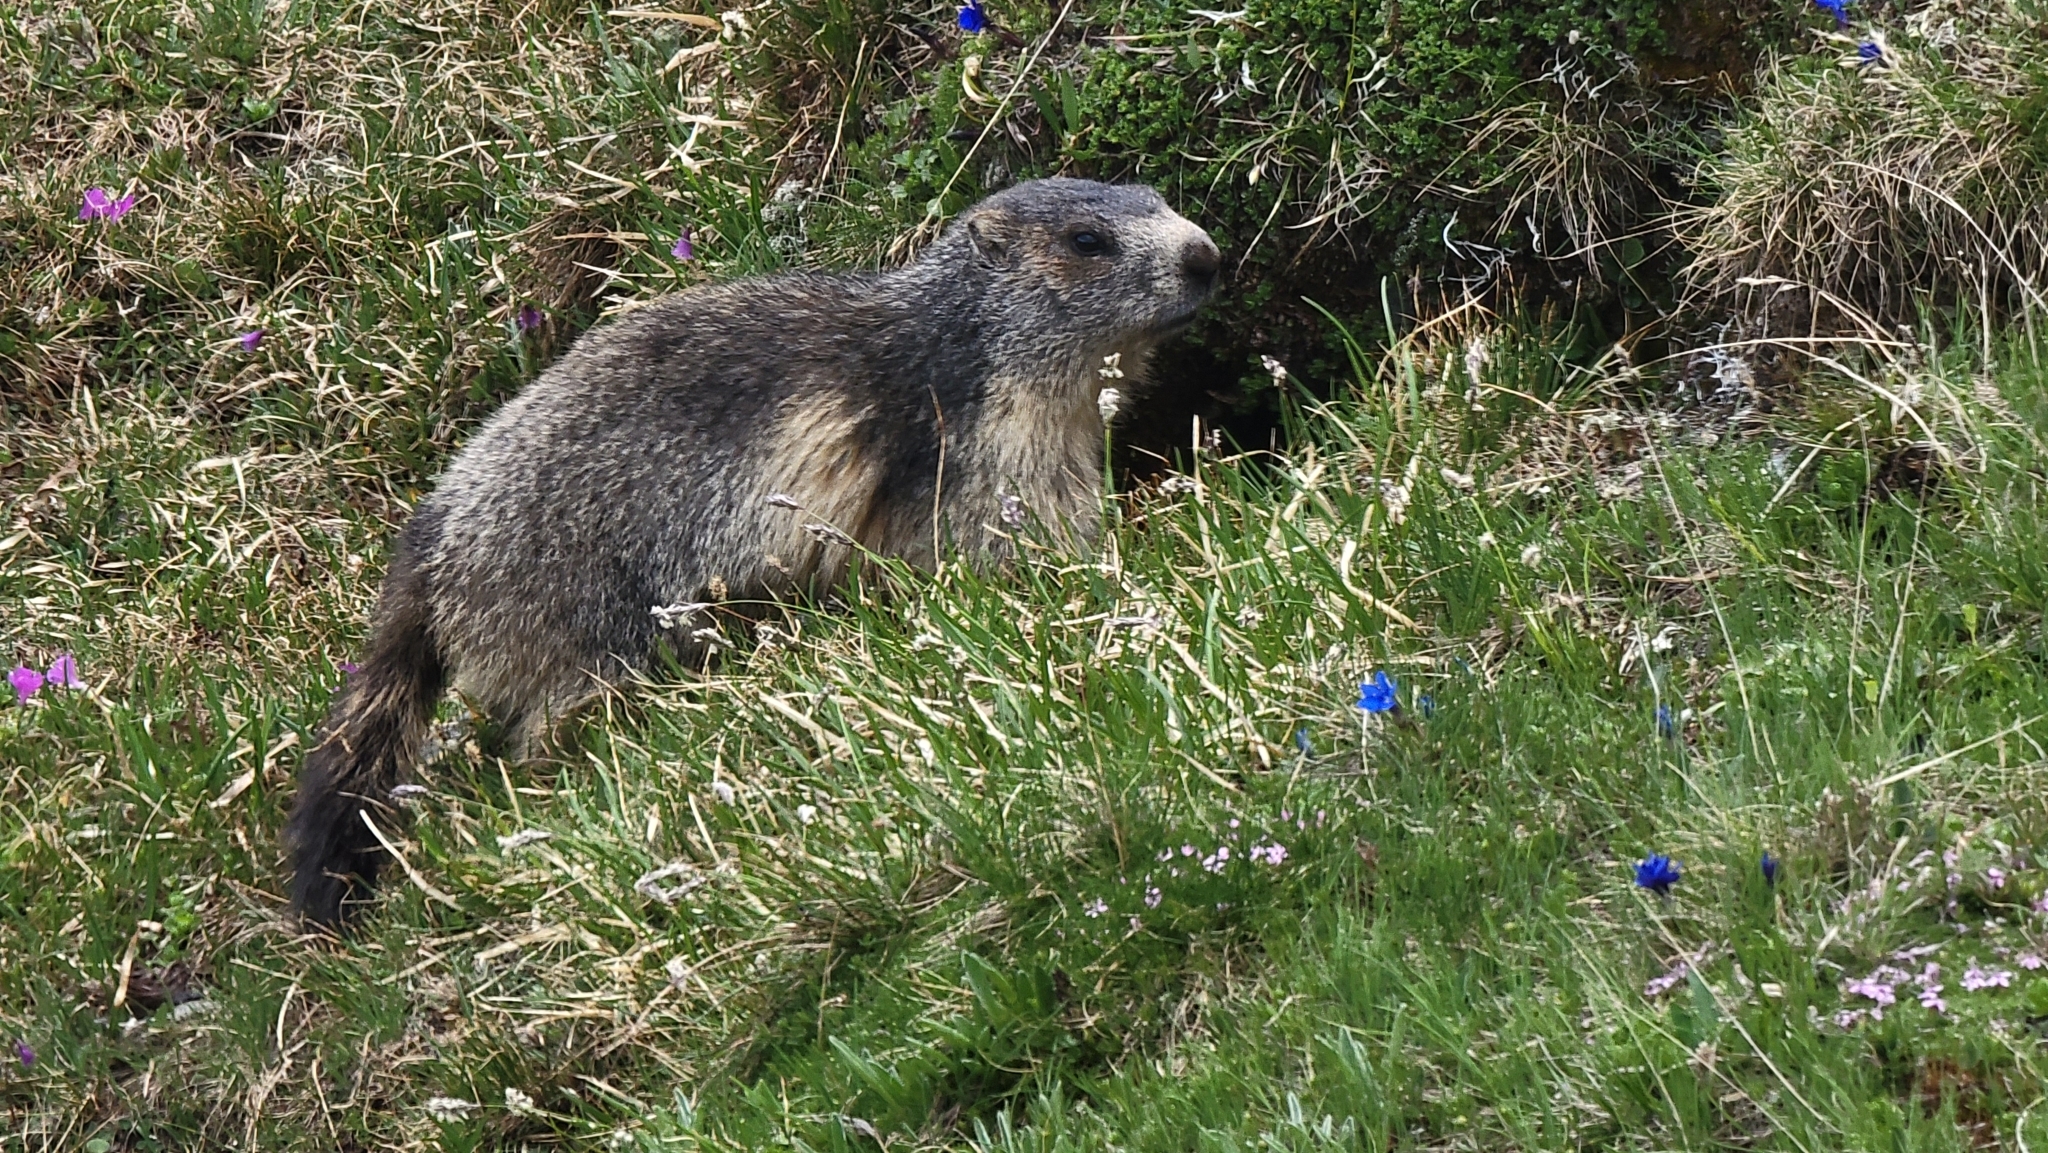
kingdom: Animalia
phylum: Chordata
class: Mammalia
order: Rodentia
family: Sciuridae
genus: Marmota
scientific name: Marmota marmota
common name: Alpine marmot
